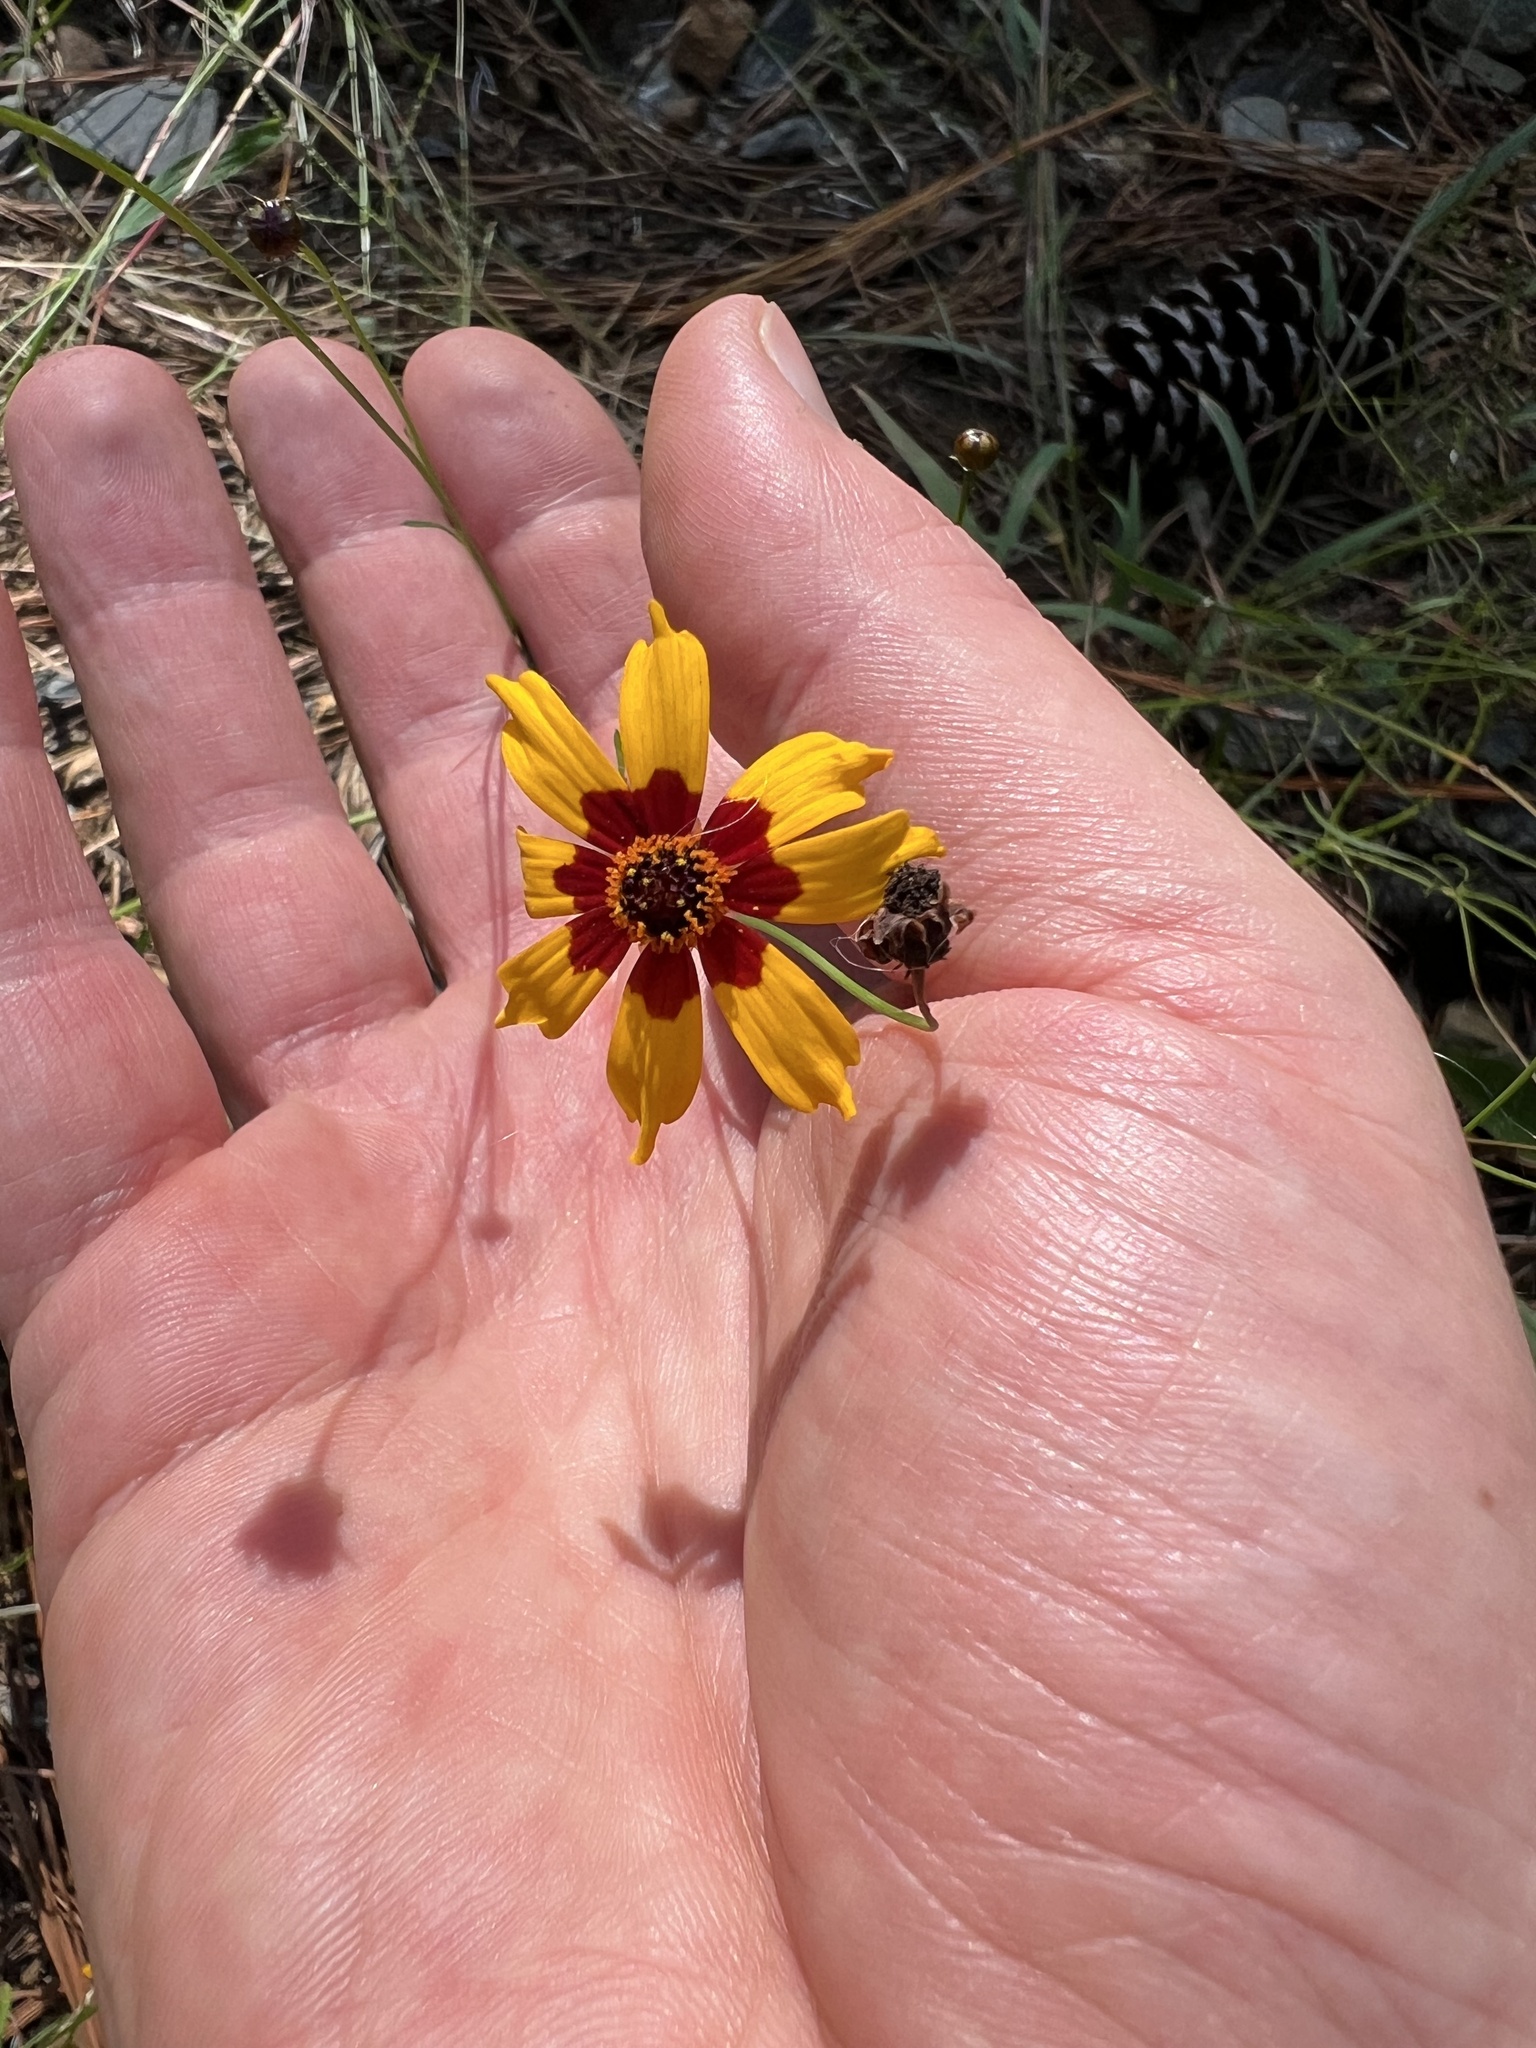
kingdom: Plantae
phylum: Tracheophyta
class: Magnoliopsida
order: Asterales
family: Asteraceae
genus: Coreopsis
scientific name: Coreopsis tinctoria
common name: Garden tickseed
